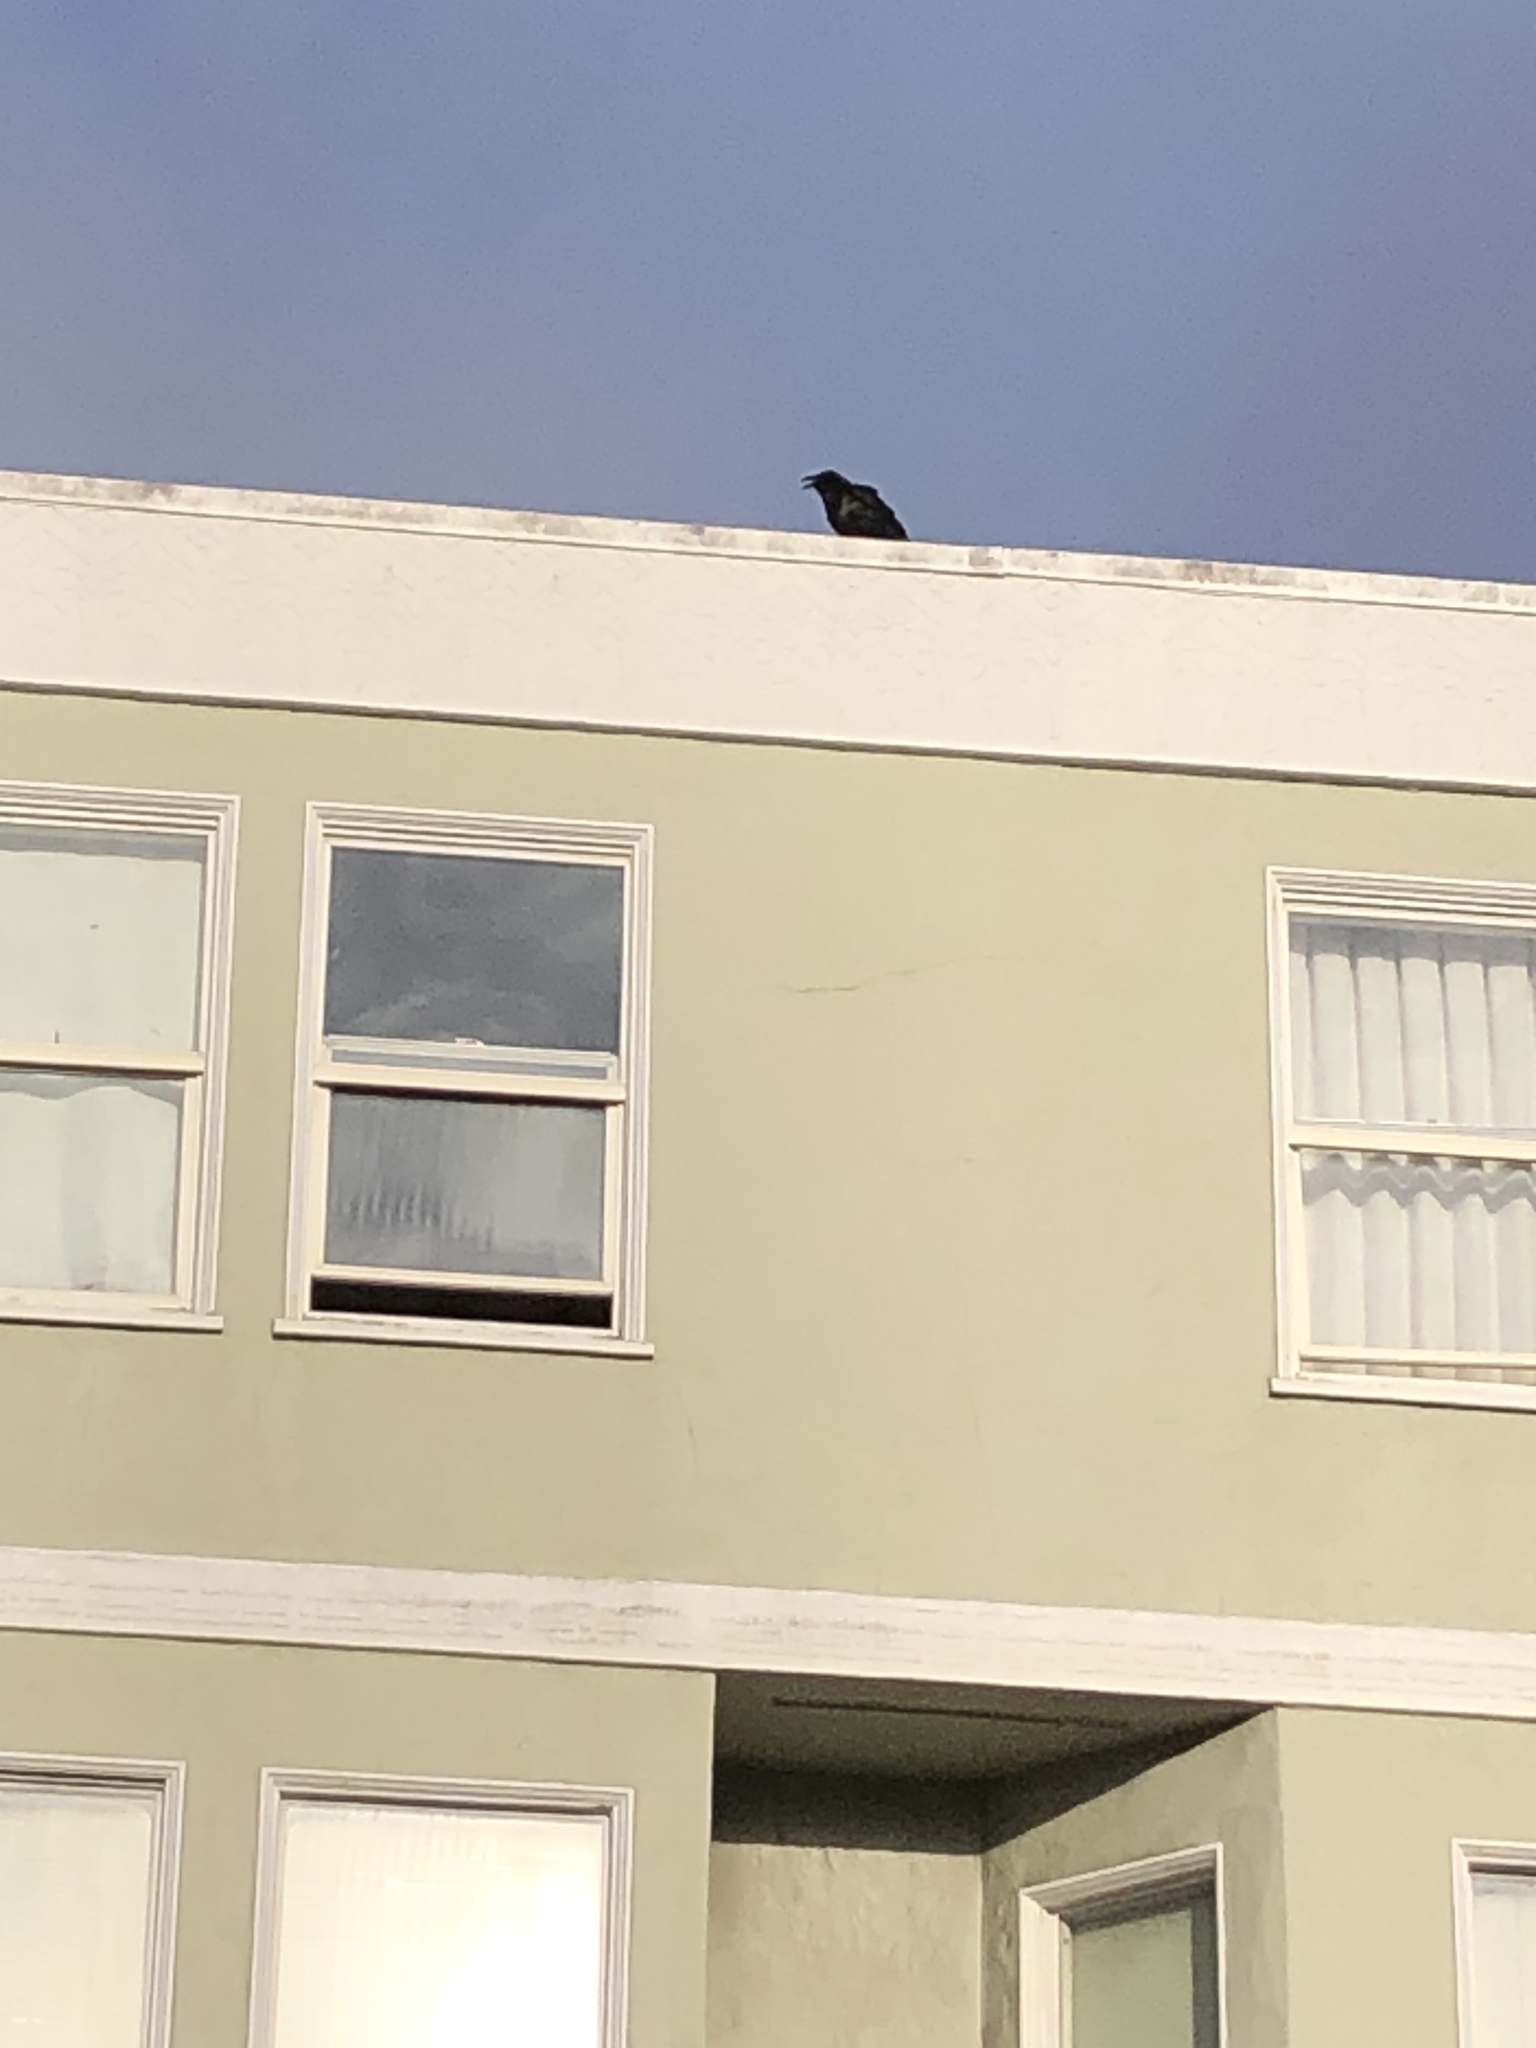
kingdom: Animalia
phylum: Chordata
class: Aves
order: Passeriformes
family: Corvidae
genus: Corvus
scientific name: Corvus corax
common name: Common raven
